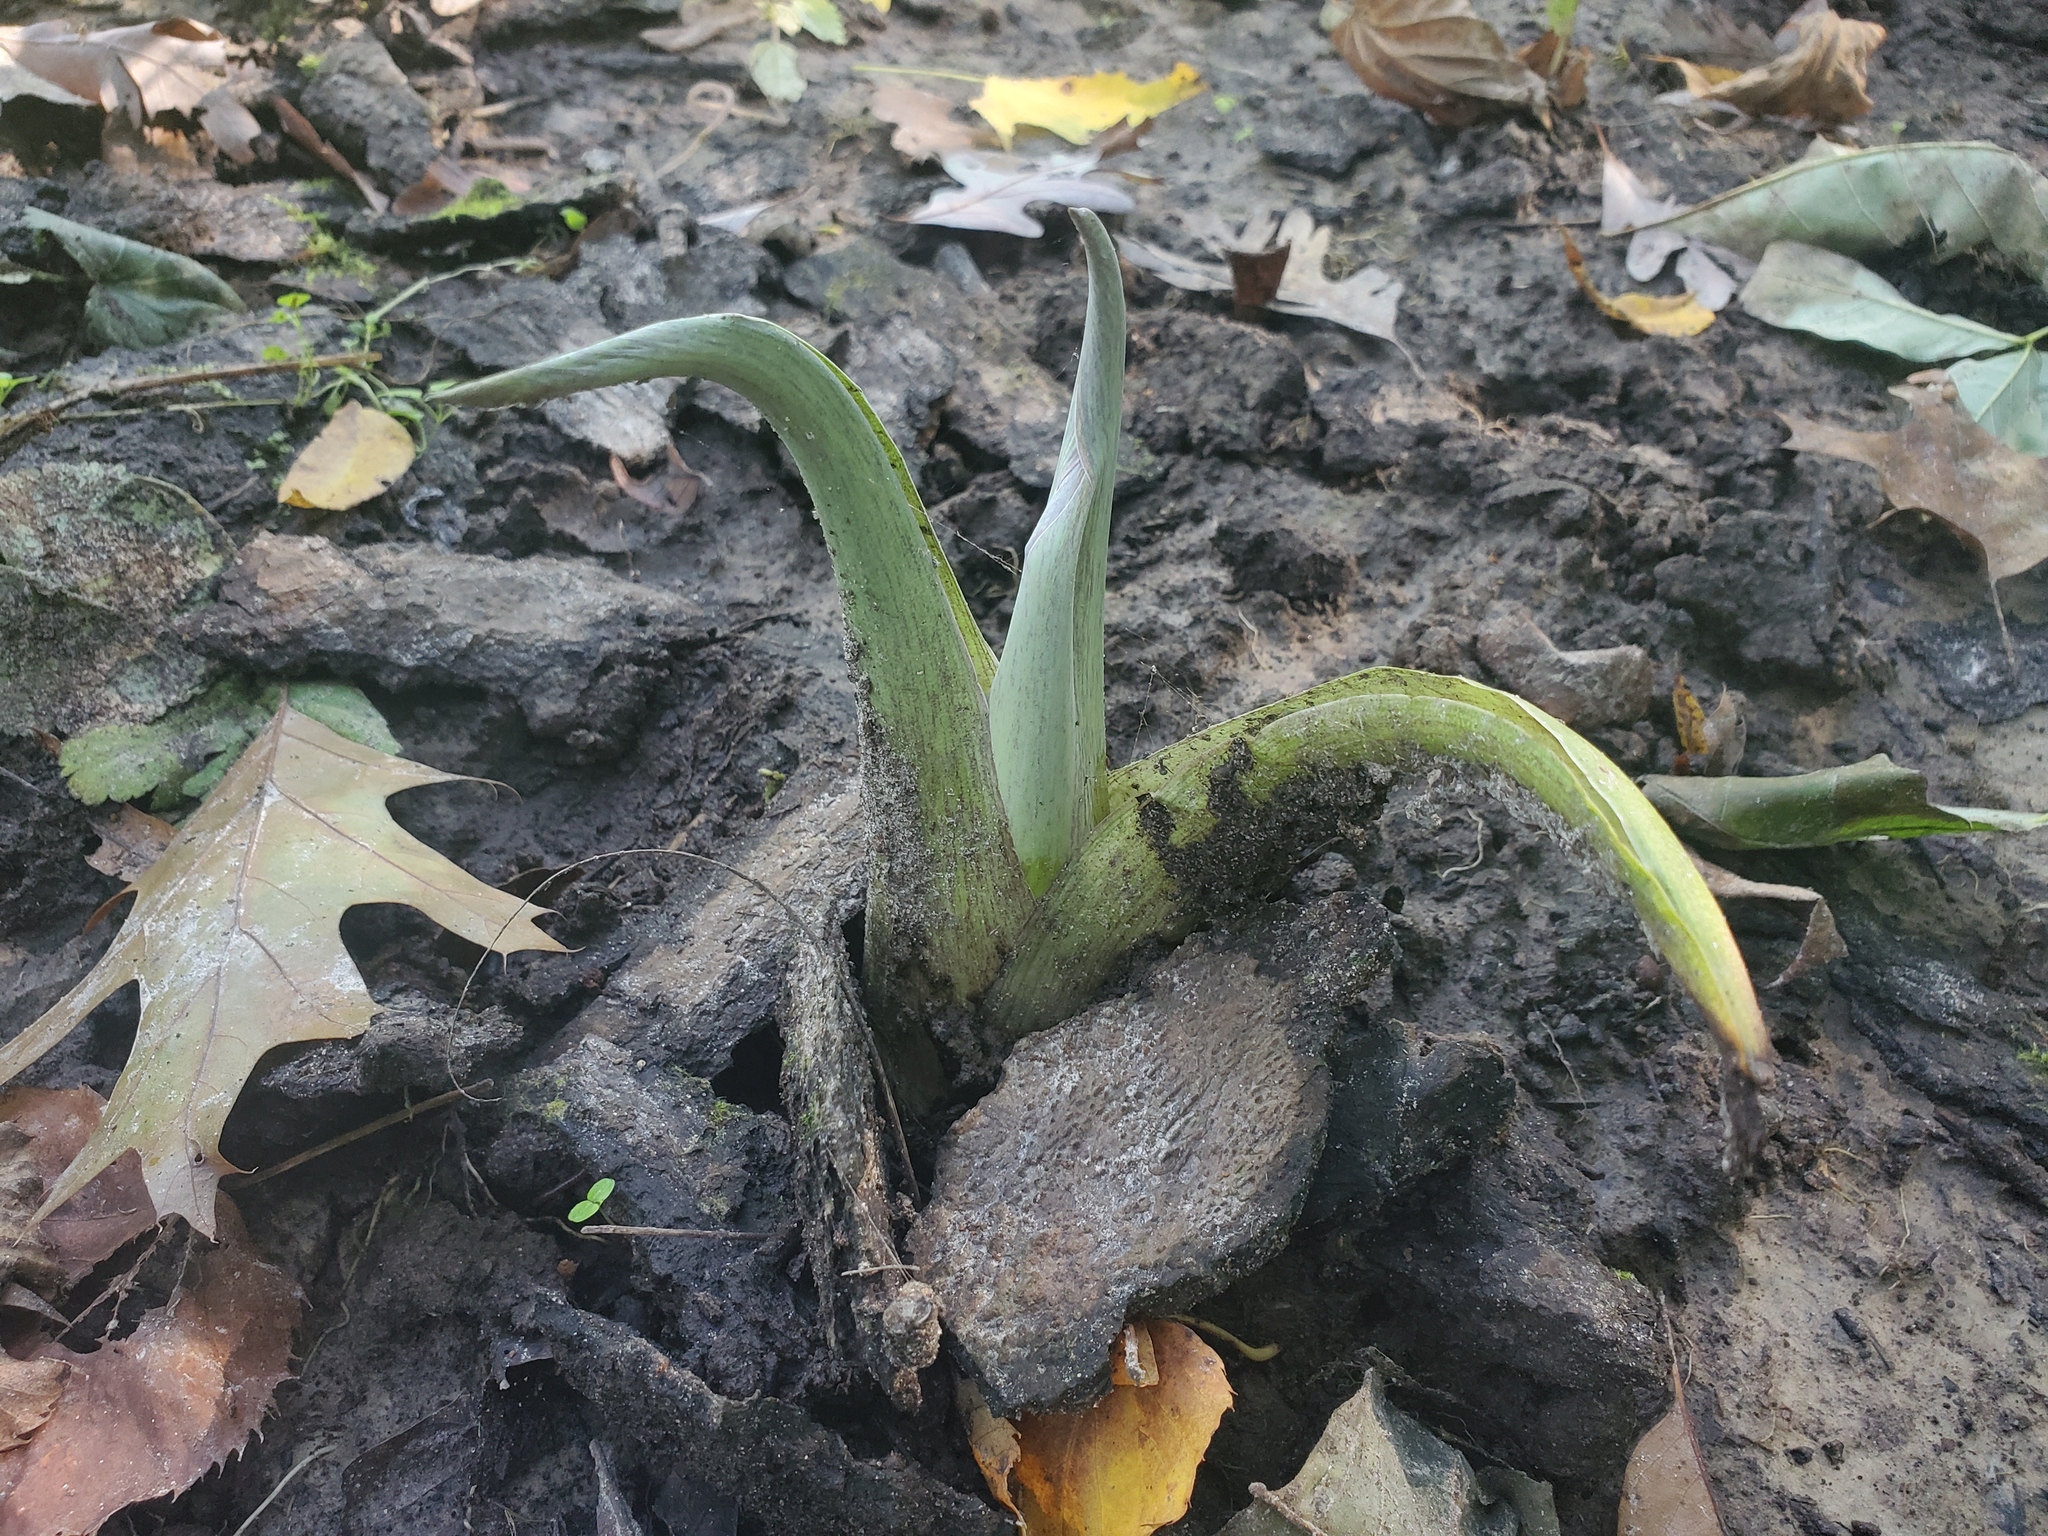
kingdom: Plantae
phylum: Tracheophyta
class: Liliopsida
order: Alismatales
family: Araceae
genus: Symplocarpus
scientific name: Symplocarpus foetidus
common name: Eastern skunk cabbage
